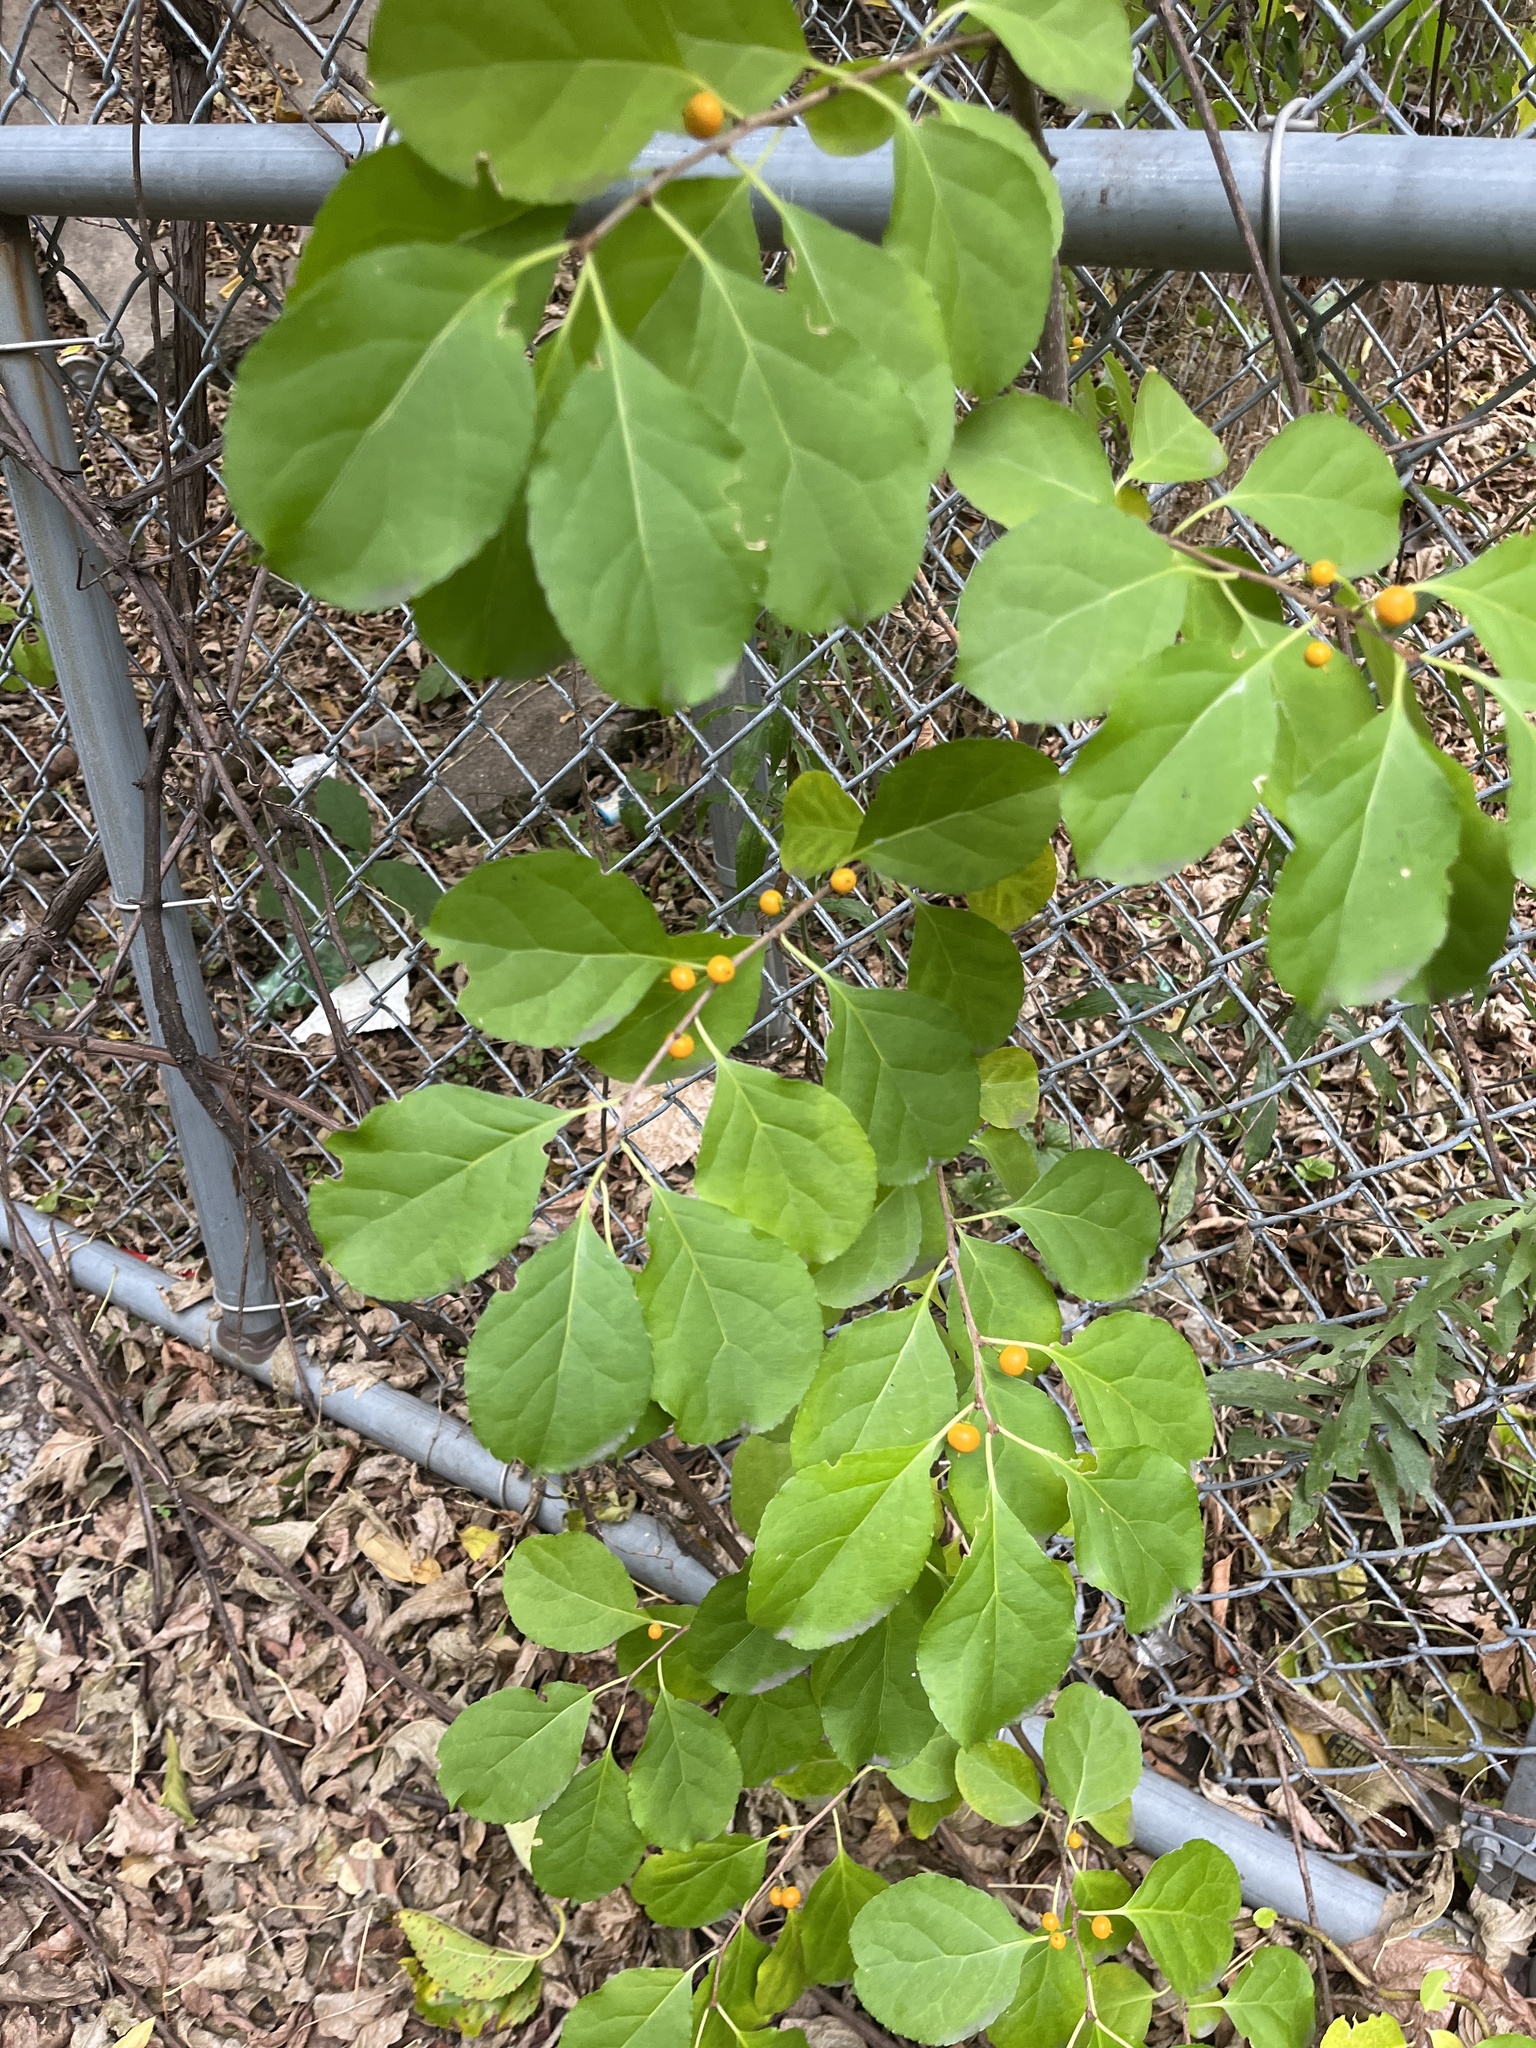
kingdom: Plantae
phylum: Tracheophyta
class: Magnoliopsida
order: Celastrales
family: Celastraceae
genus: Celastrus
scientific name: Celastrus orbiculatus
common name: Oriental bittersweet
